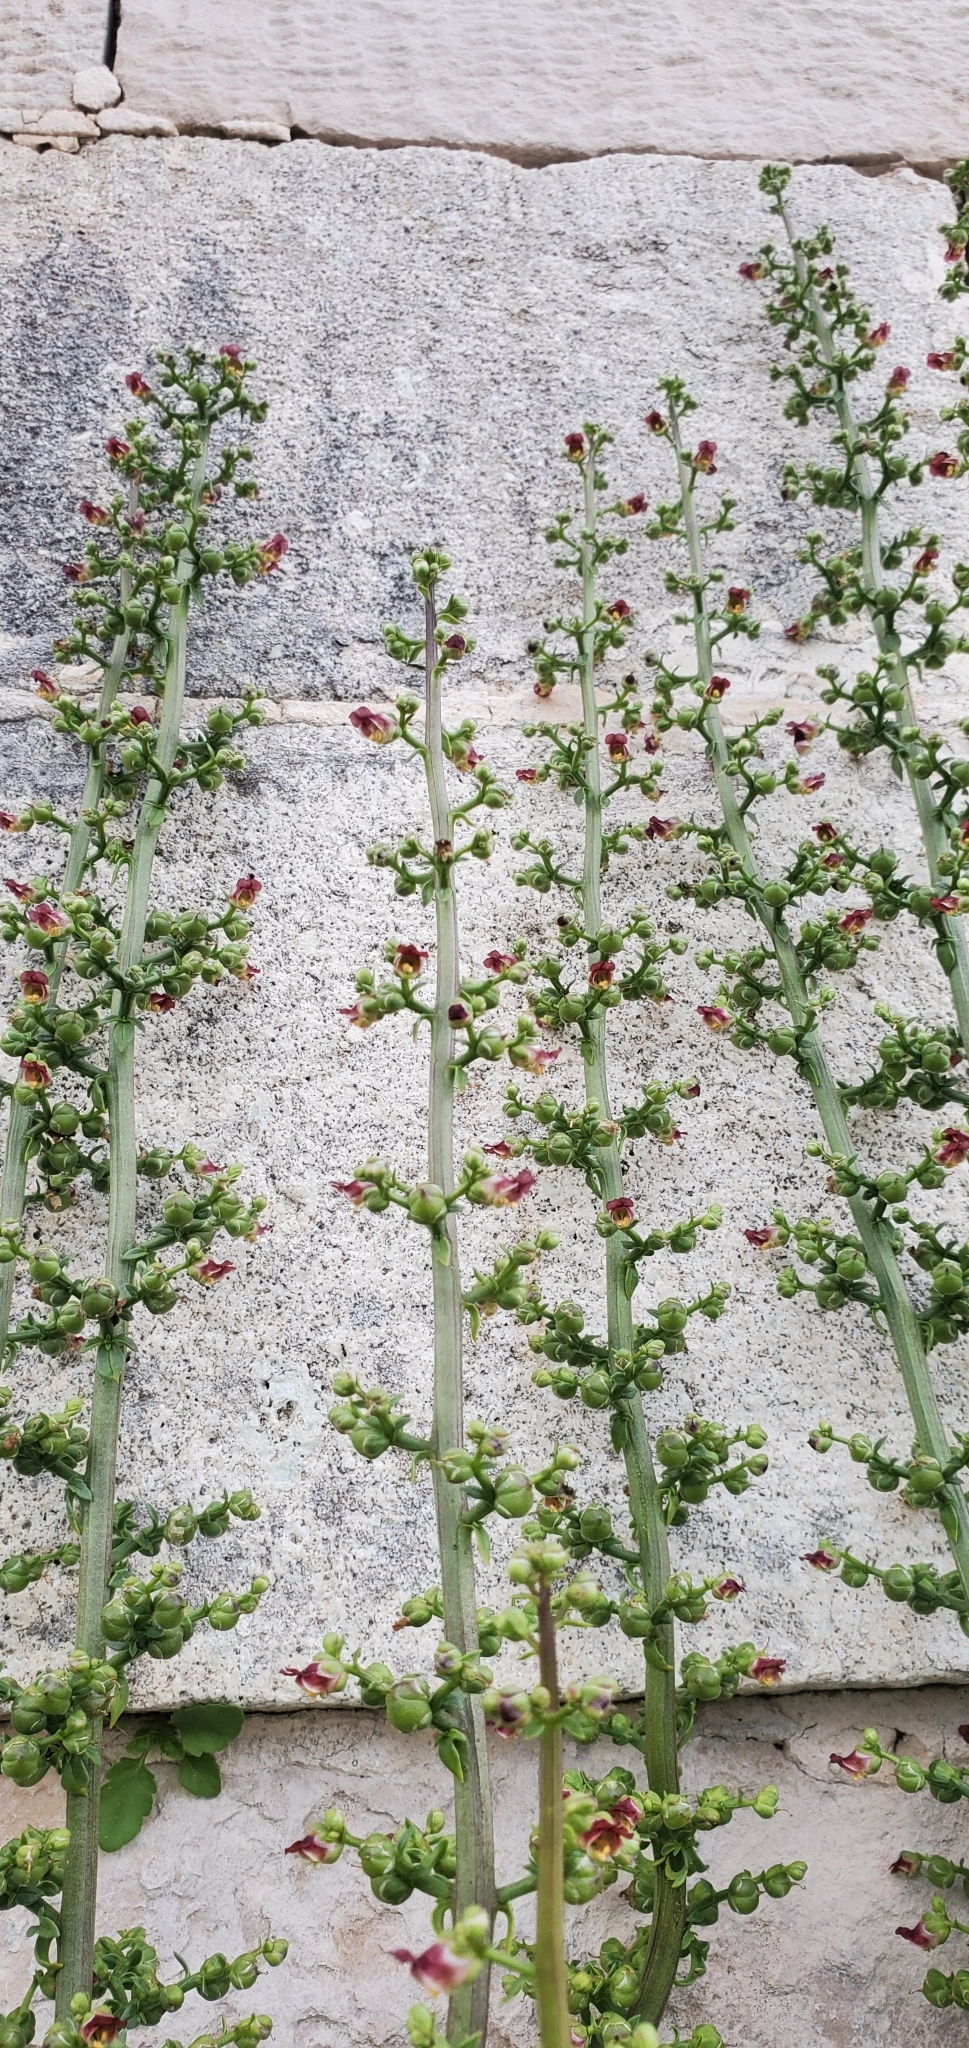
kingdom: Plantae
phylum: Tracheophyta
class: Magnoliopsida
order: Lamiales
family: Scrophulariaceae
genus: Scrophularia
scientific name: Scrophularia lucida
